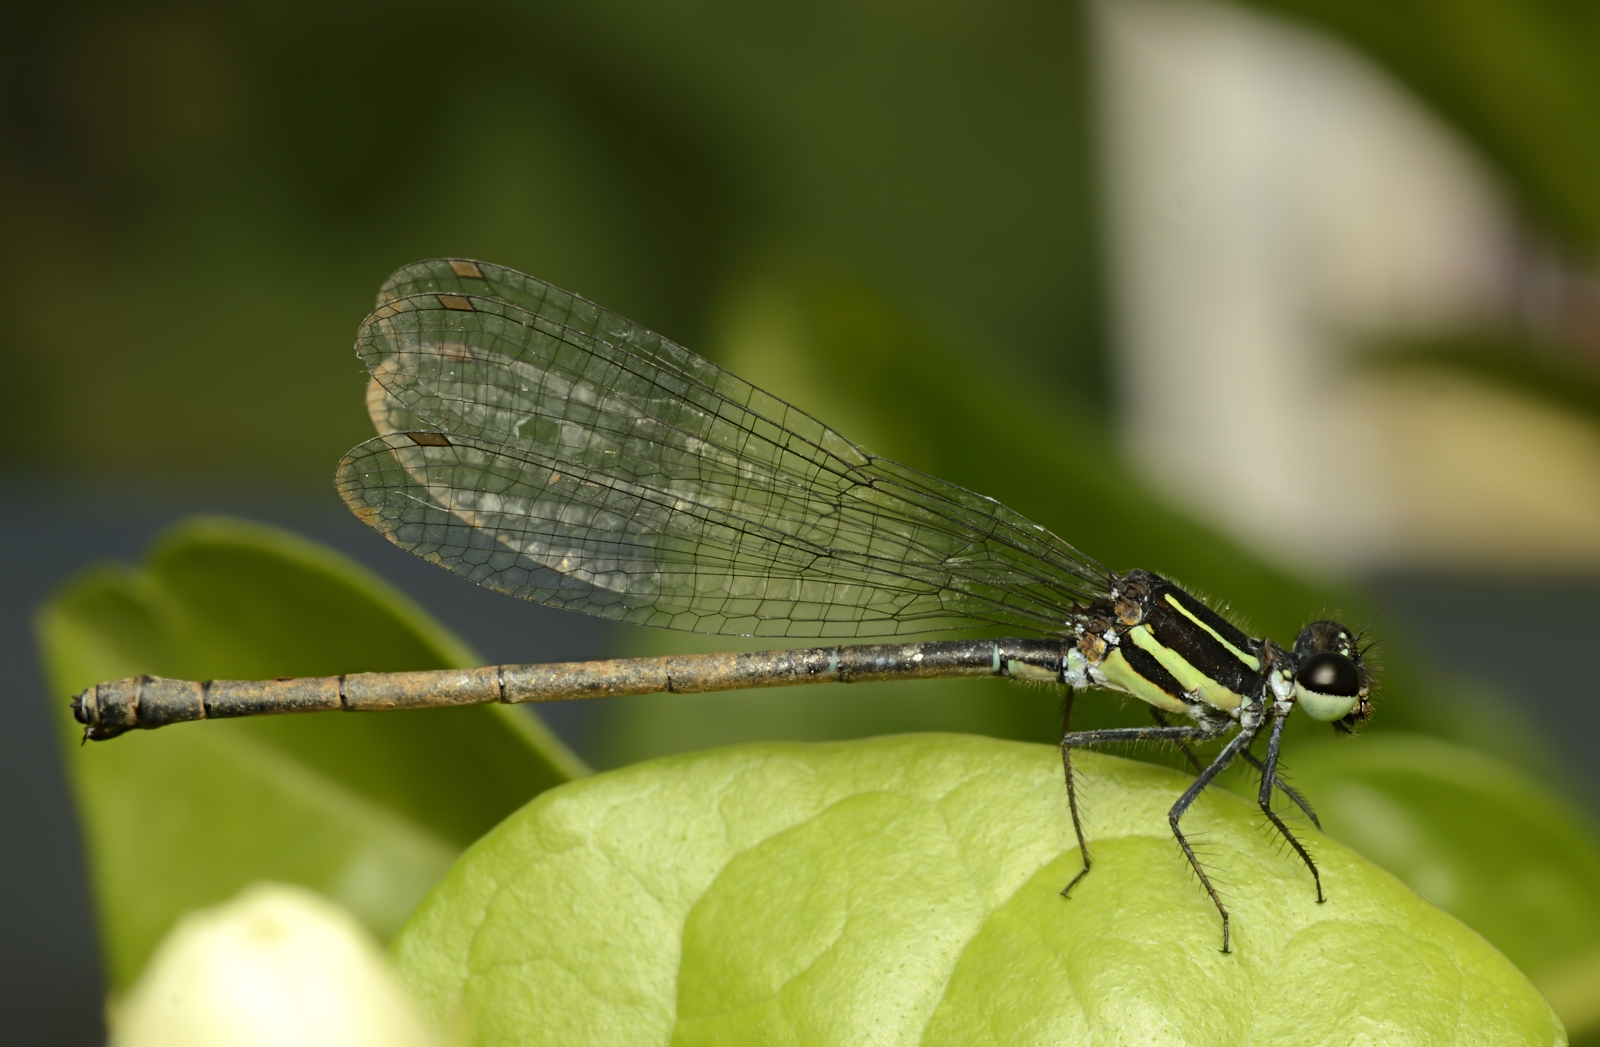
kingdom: Animalia
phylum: Arthropoda
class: Insecta
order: Odonata
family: Platycnemididae
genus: Onychargia
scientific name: Onychargia atrocyana
